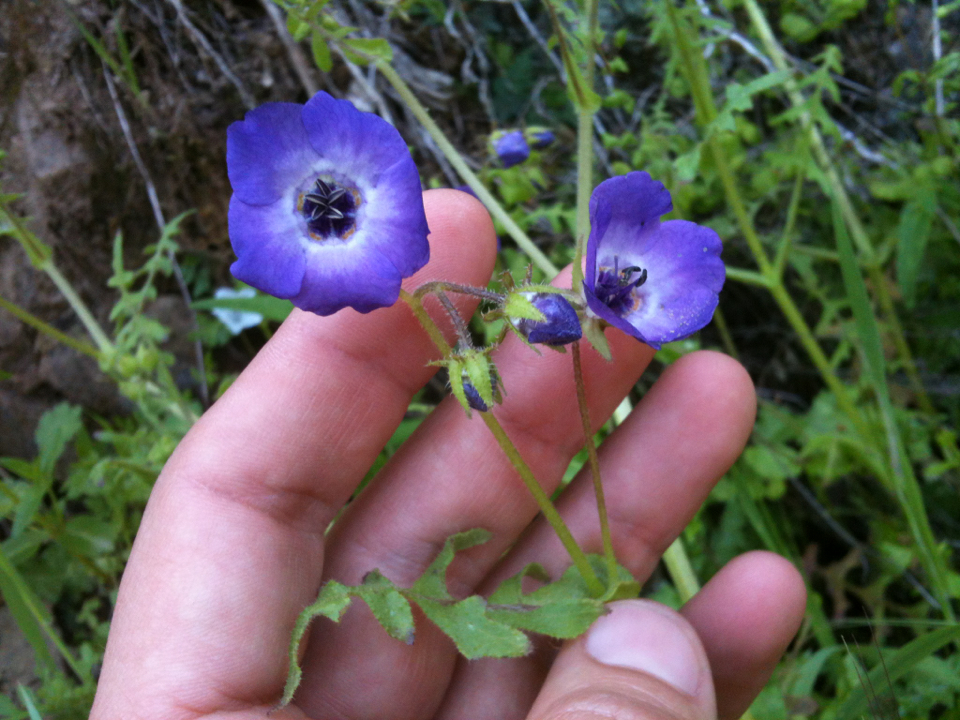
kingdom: Plantae
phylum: Tracheophyta
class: Magnoliopsida
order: Boraginales
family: Hydrophyllaceae
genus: Pholistoma
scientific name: Pholistoma auritum
